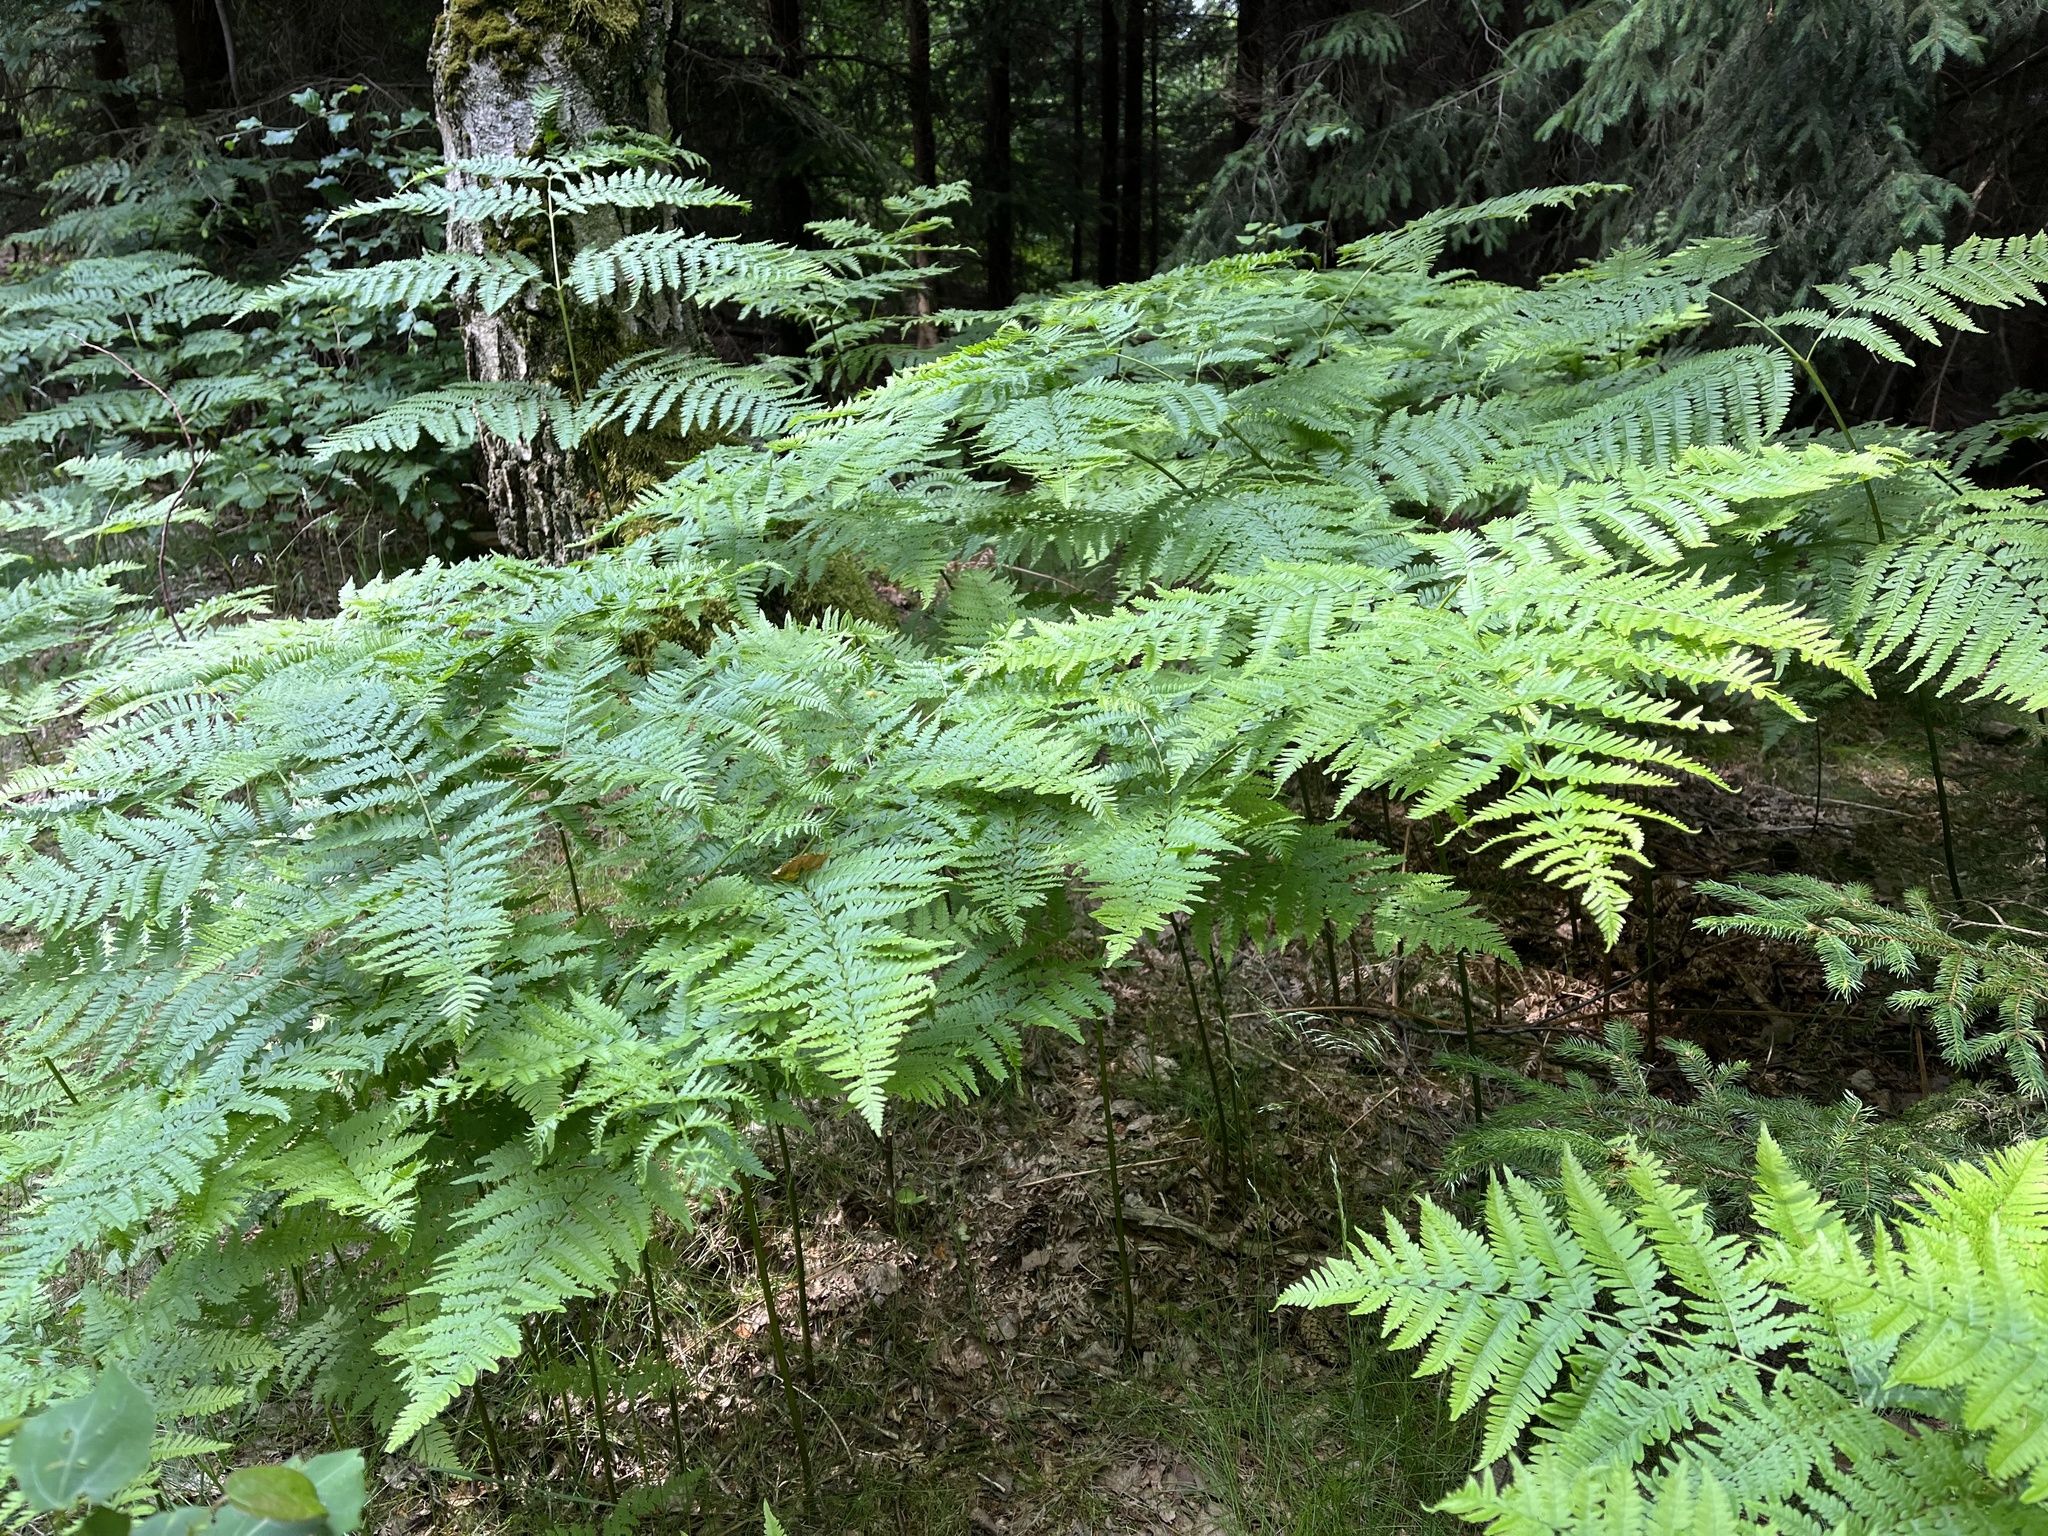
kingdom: Plantae
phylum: Tracheophyta
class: Polypodiopsida
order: Polypodiales
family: Dennstaedtiaceae
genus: Pteridium
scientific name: Pteridium aquilinum
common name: Bracken
